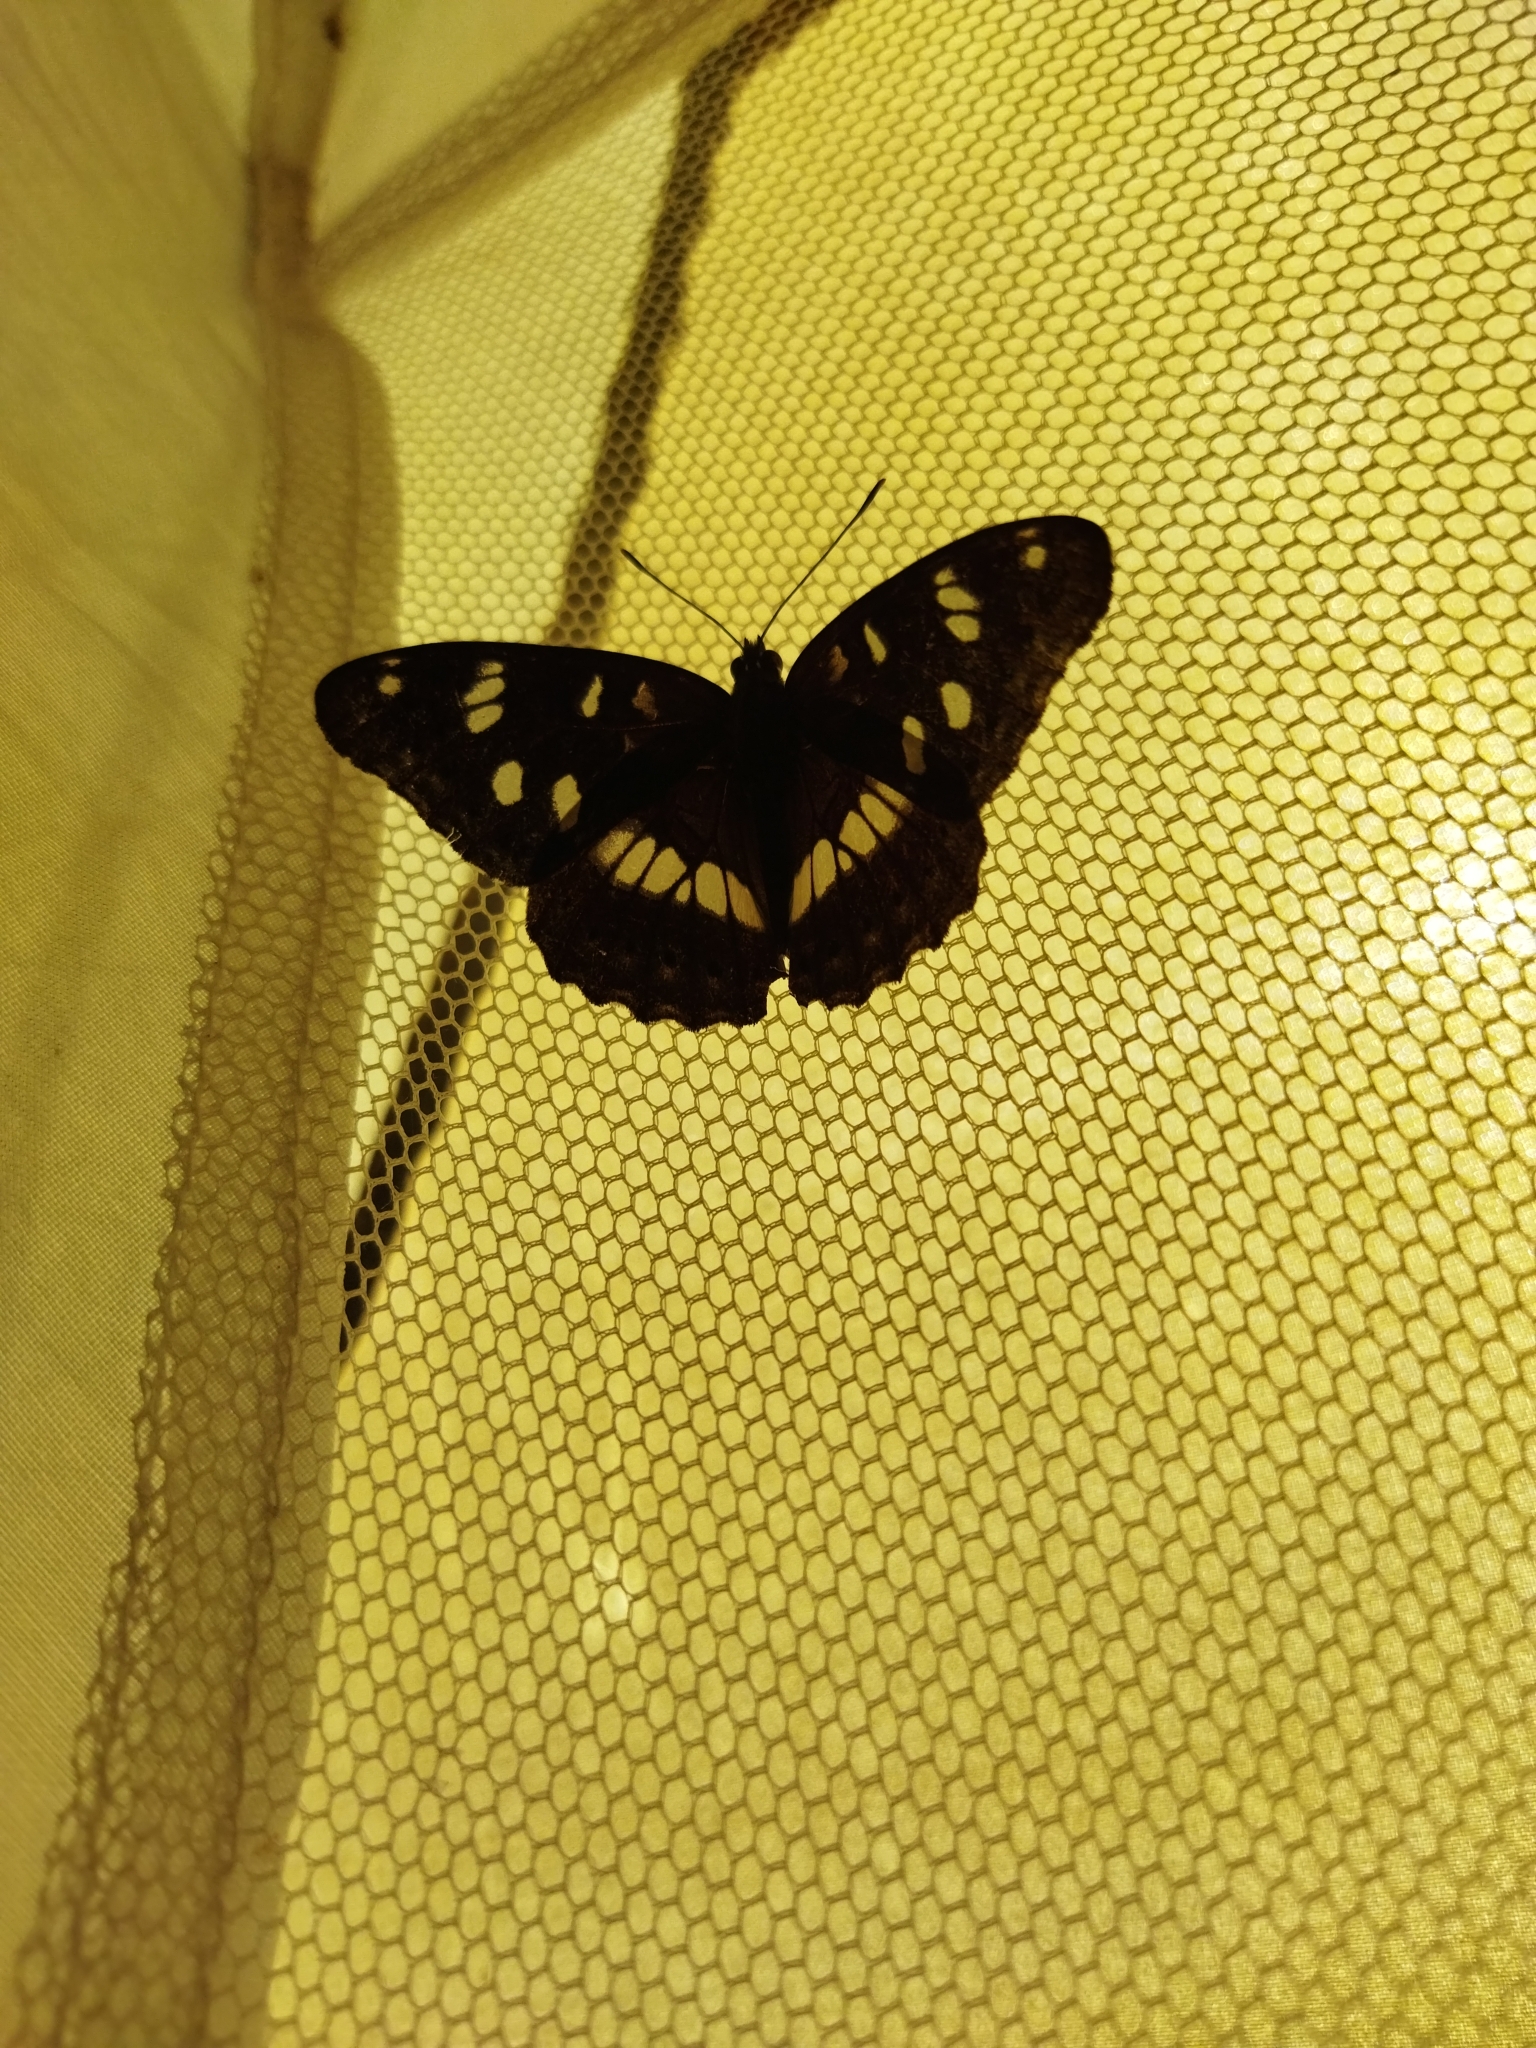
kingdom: Animalia
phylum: Arthropoda
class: Insecta
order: Lepidoptera
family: Nymphalidae
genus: Limenitis
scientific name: Limenitis reducta
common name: Southern white admiral
